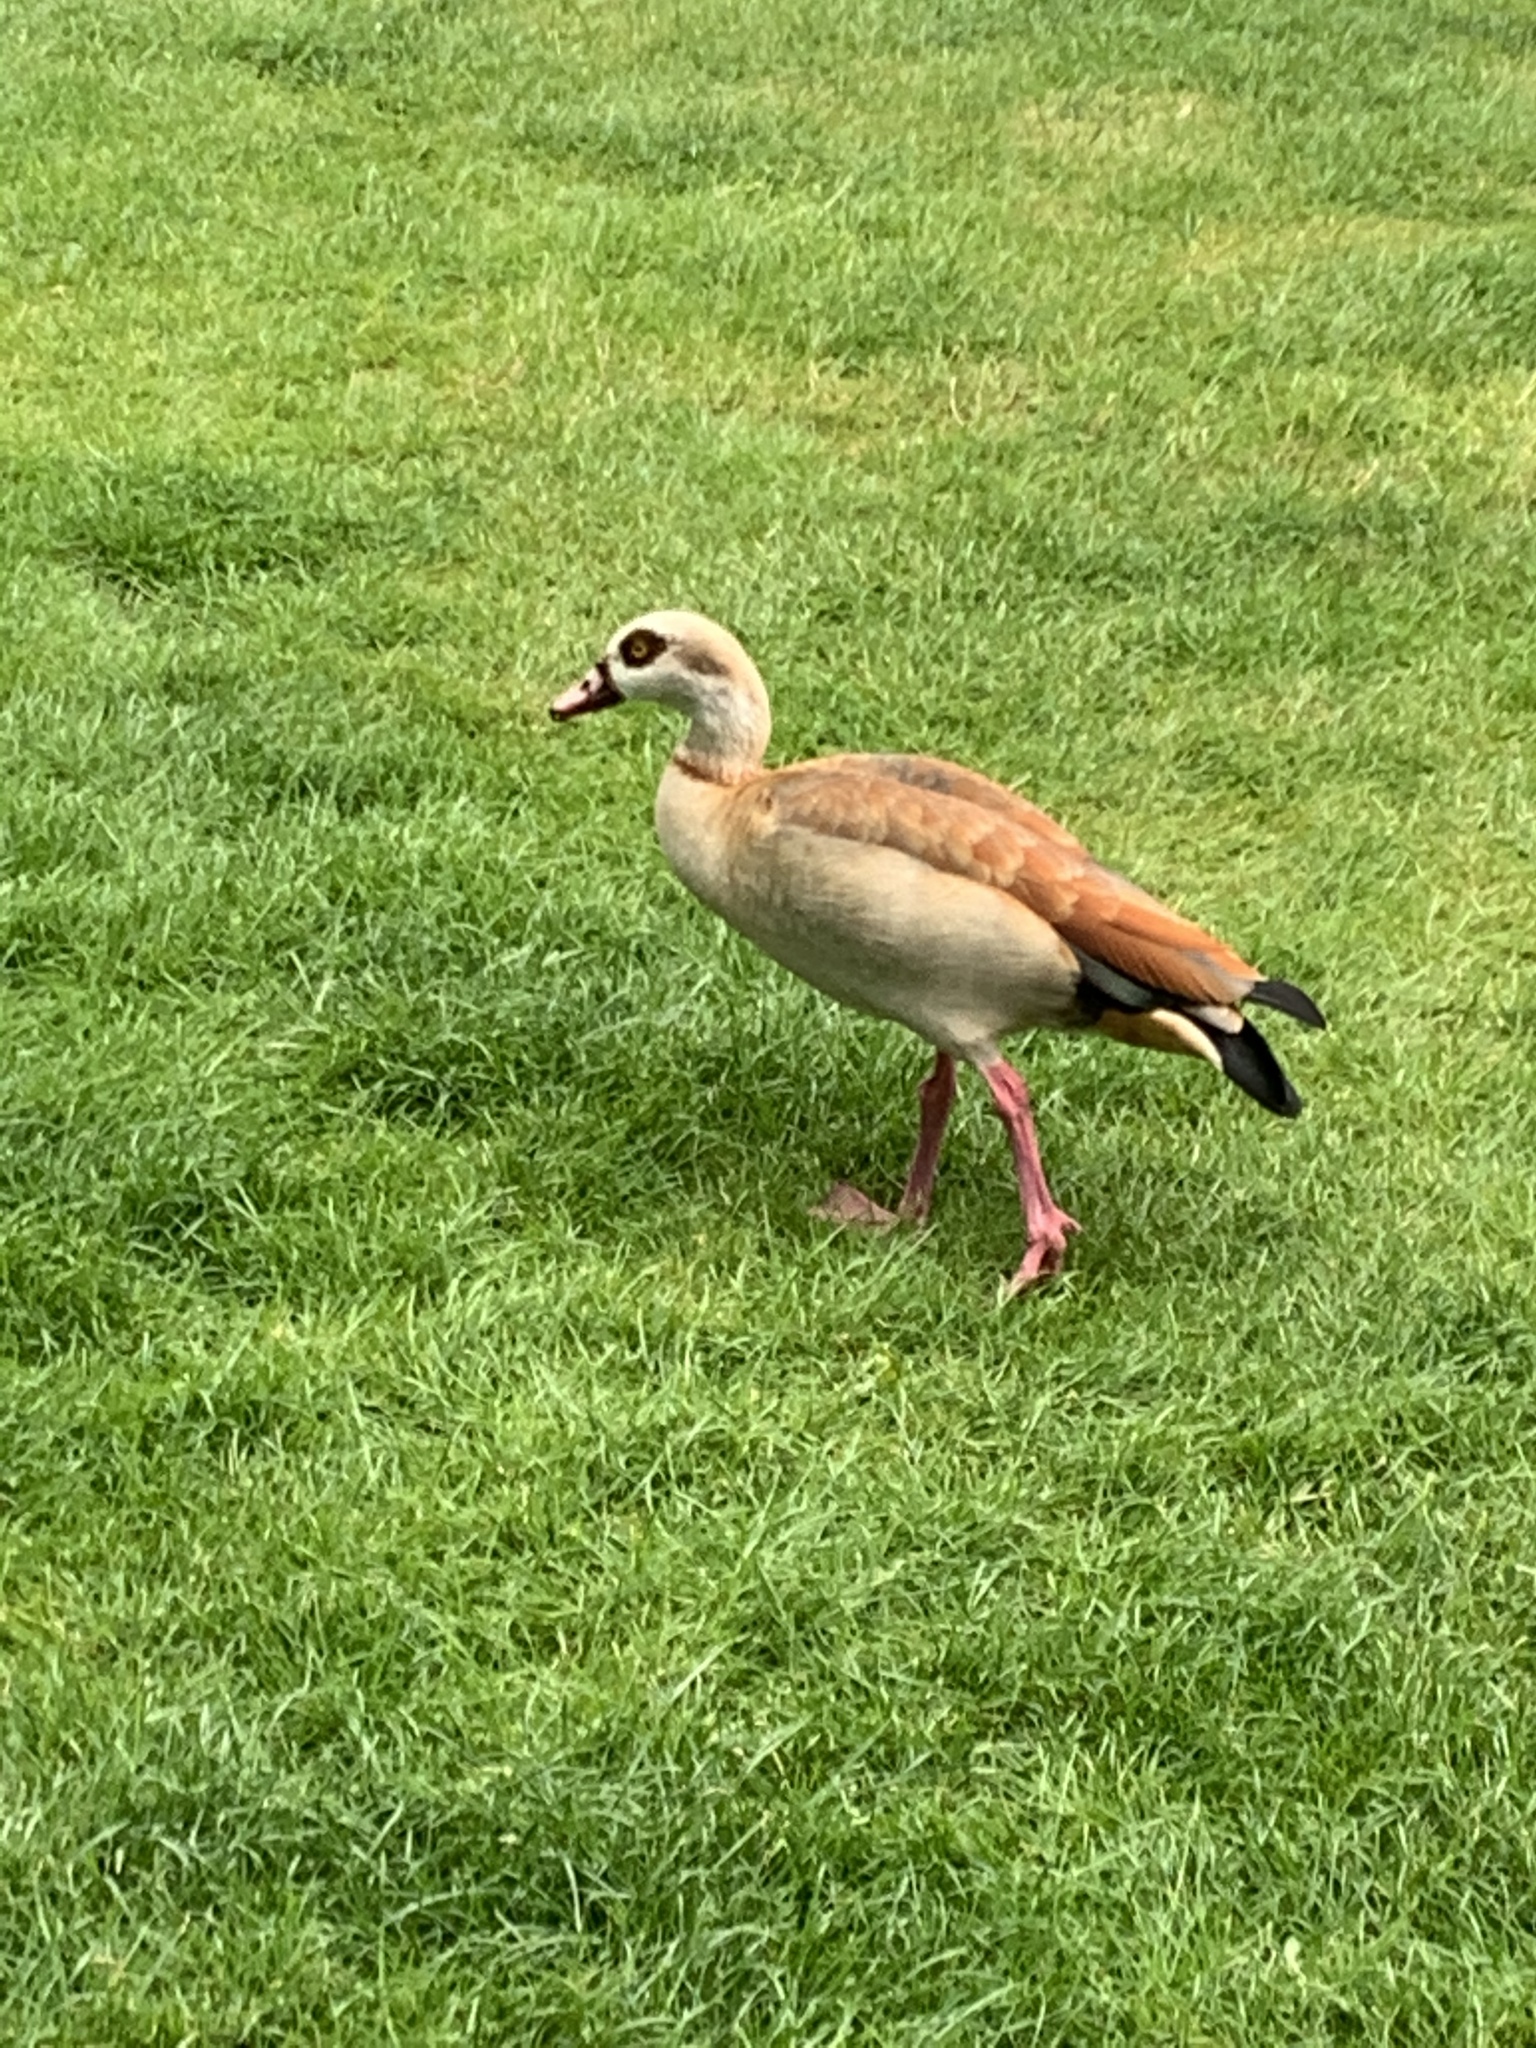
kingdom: Animalia
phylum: Chordata
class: Aves
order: Anseriformes
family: Anatidae
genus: Alopochen
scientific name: Alopochen aegyptiaca
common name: Egyptian goose
